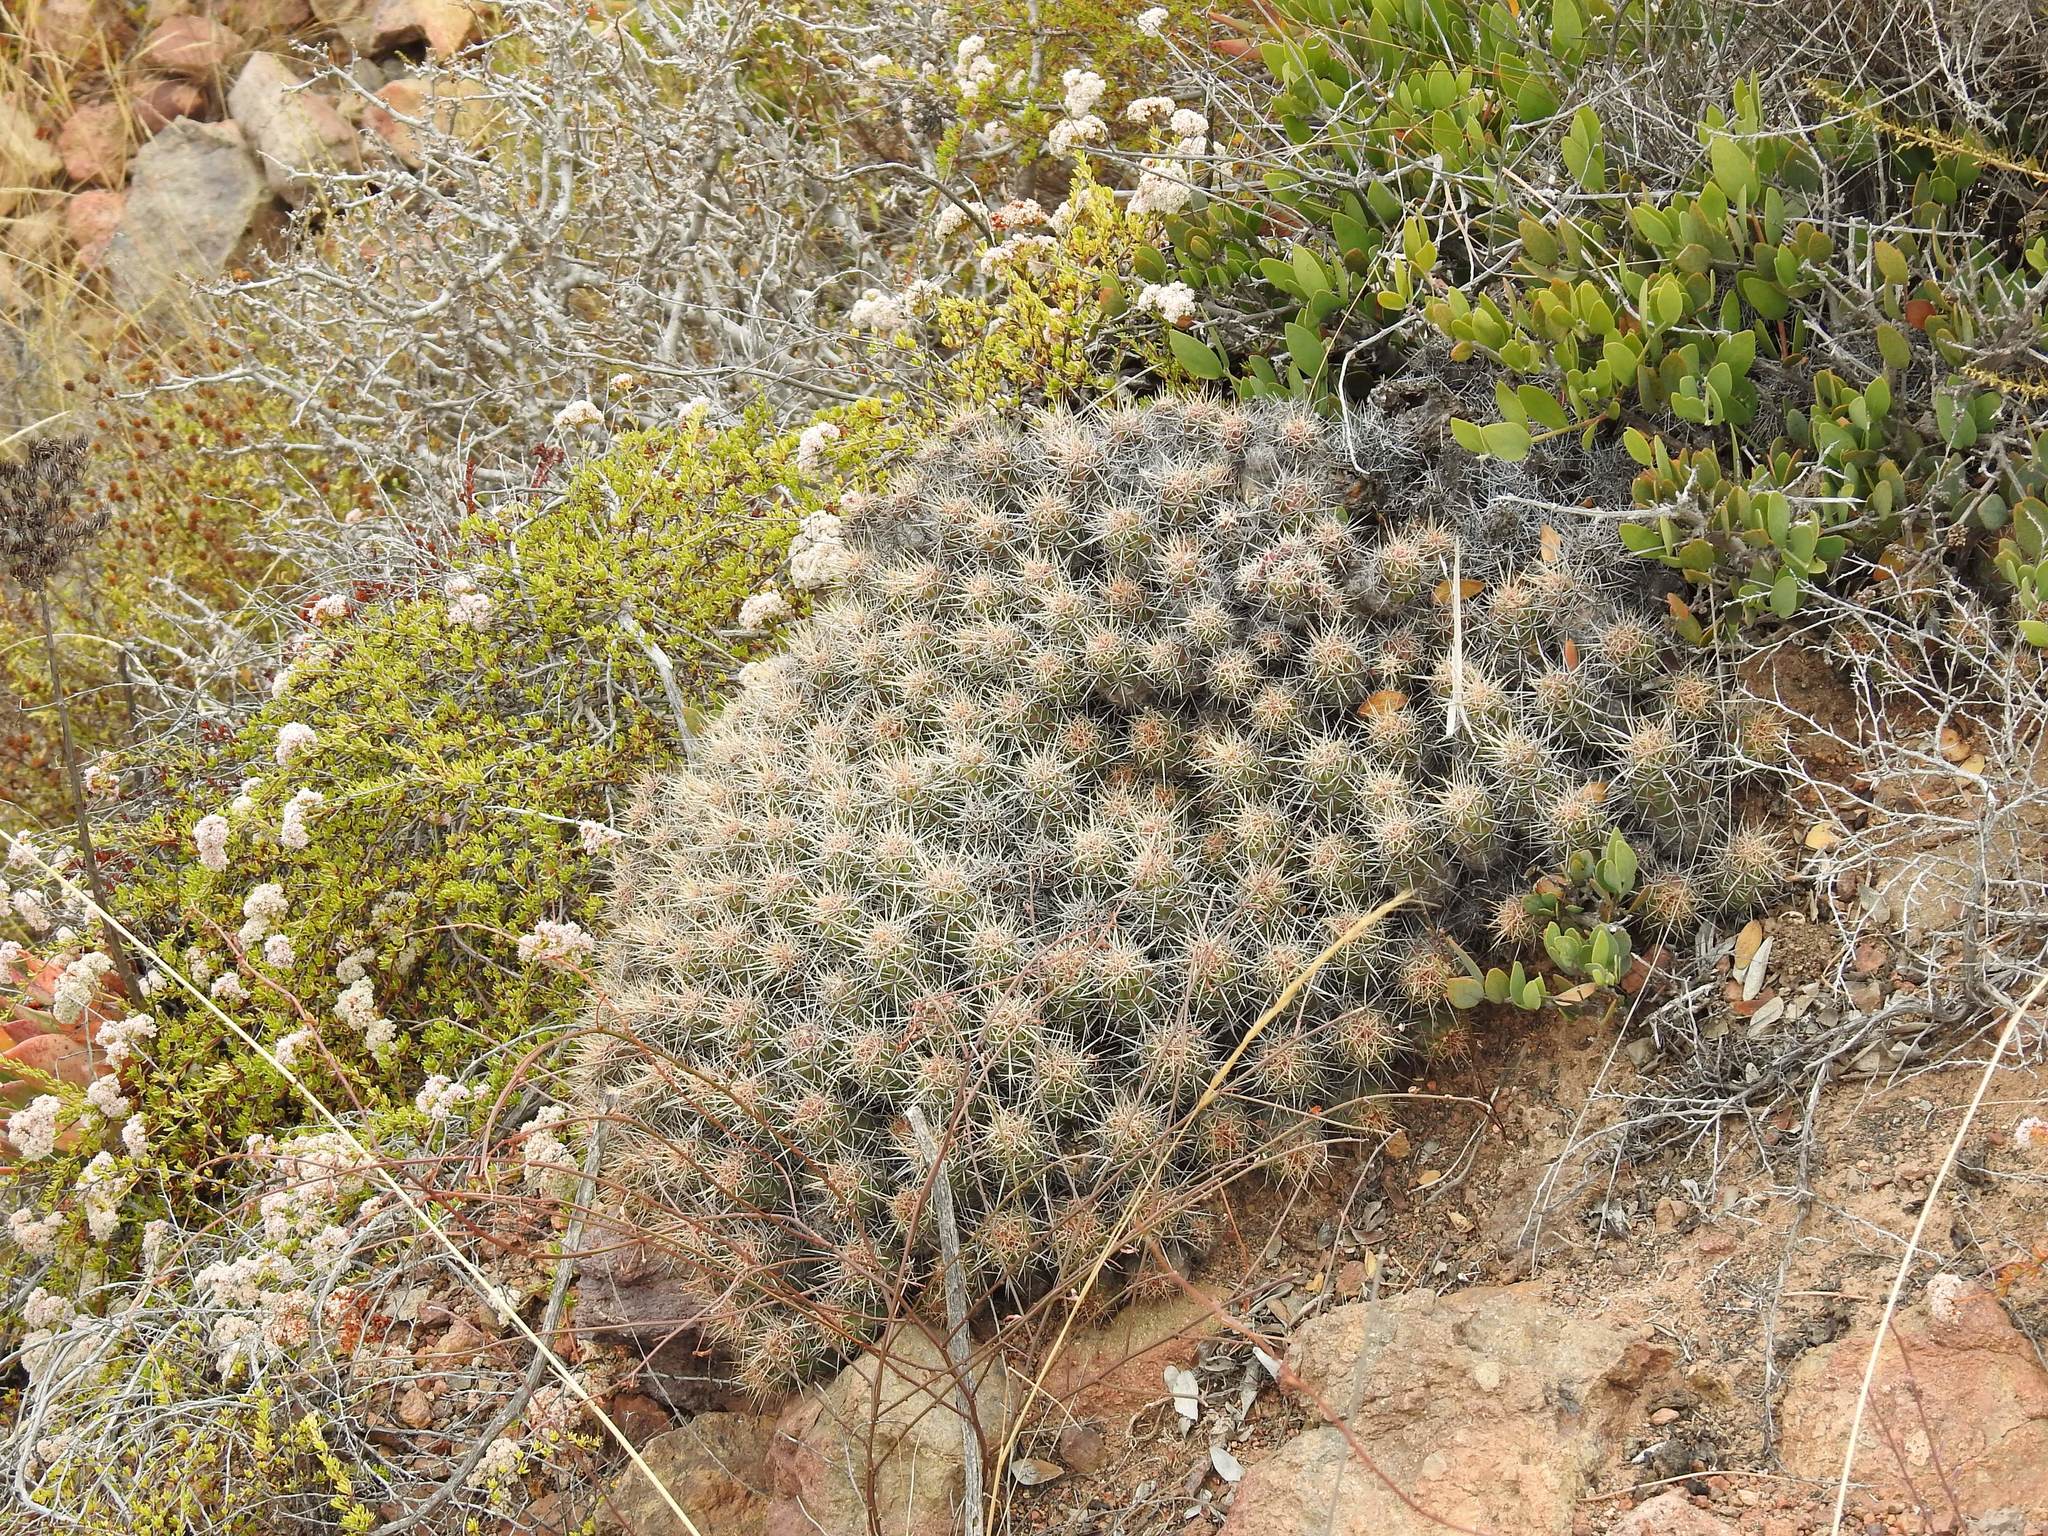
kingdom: Plantae
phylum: Tracheophyta
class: Magnoliopsida
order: Caryophyllales
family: Cactaceae
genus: Echinocereus
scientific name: Echinocereus maritimus
